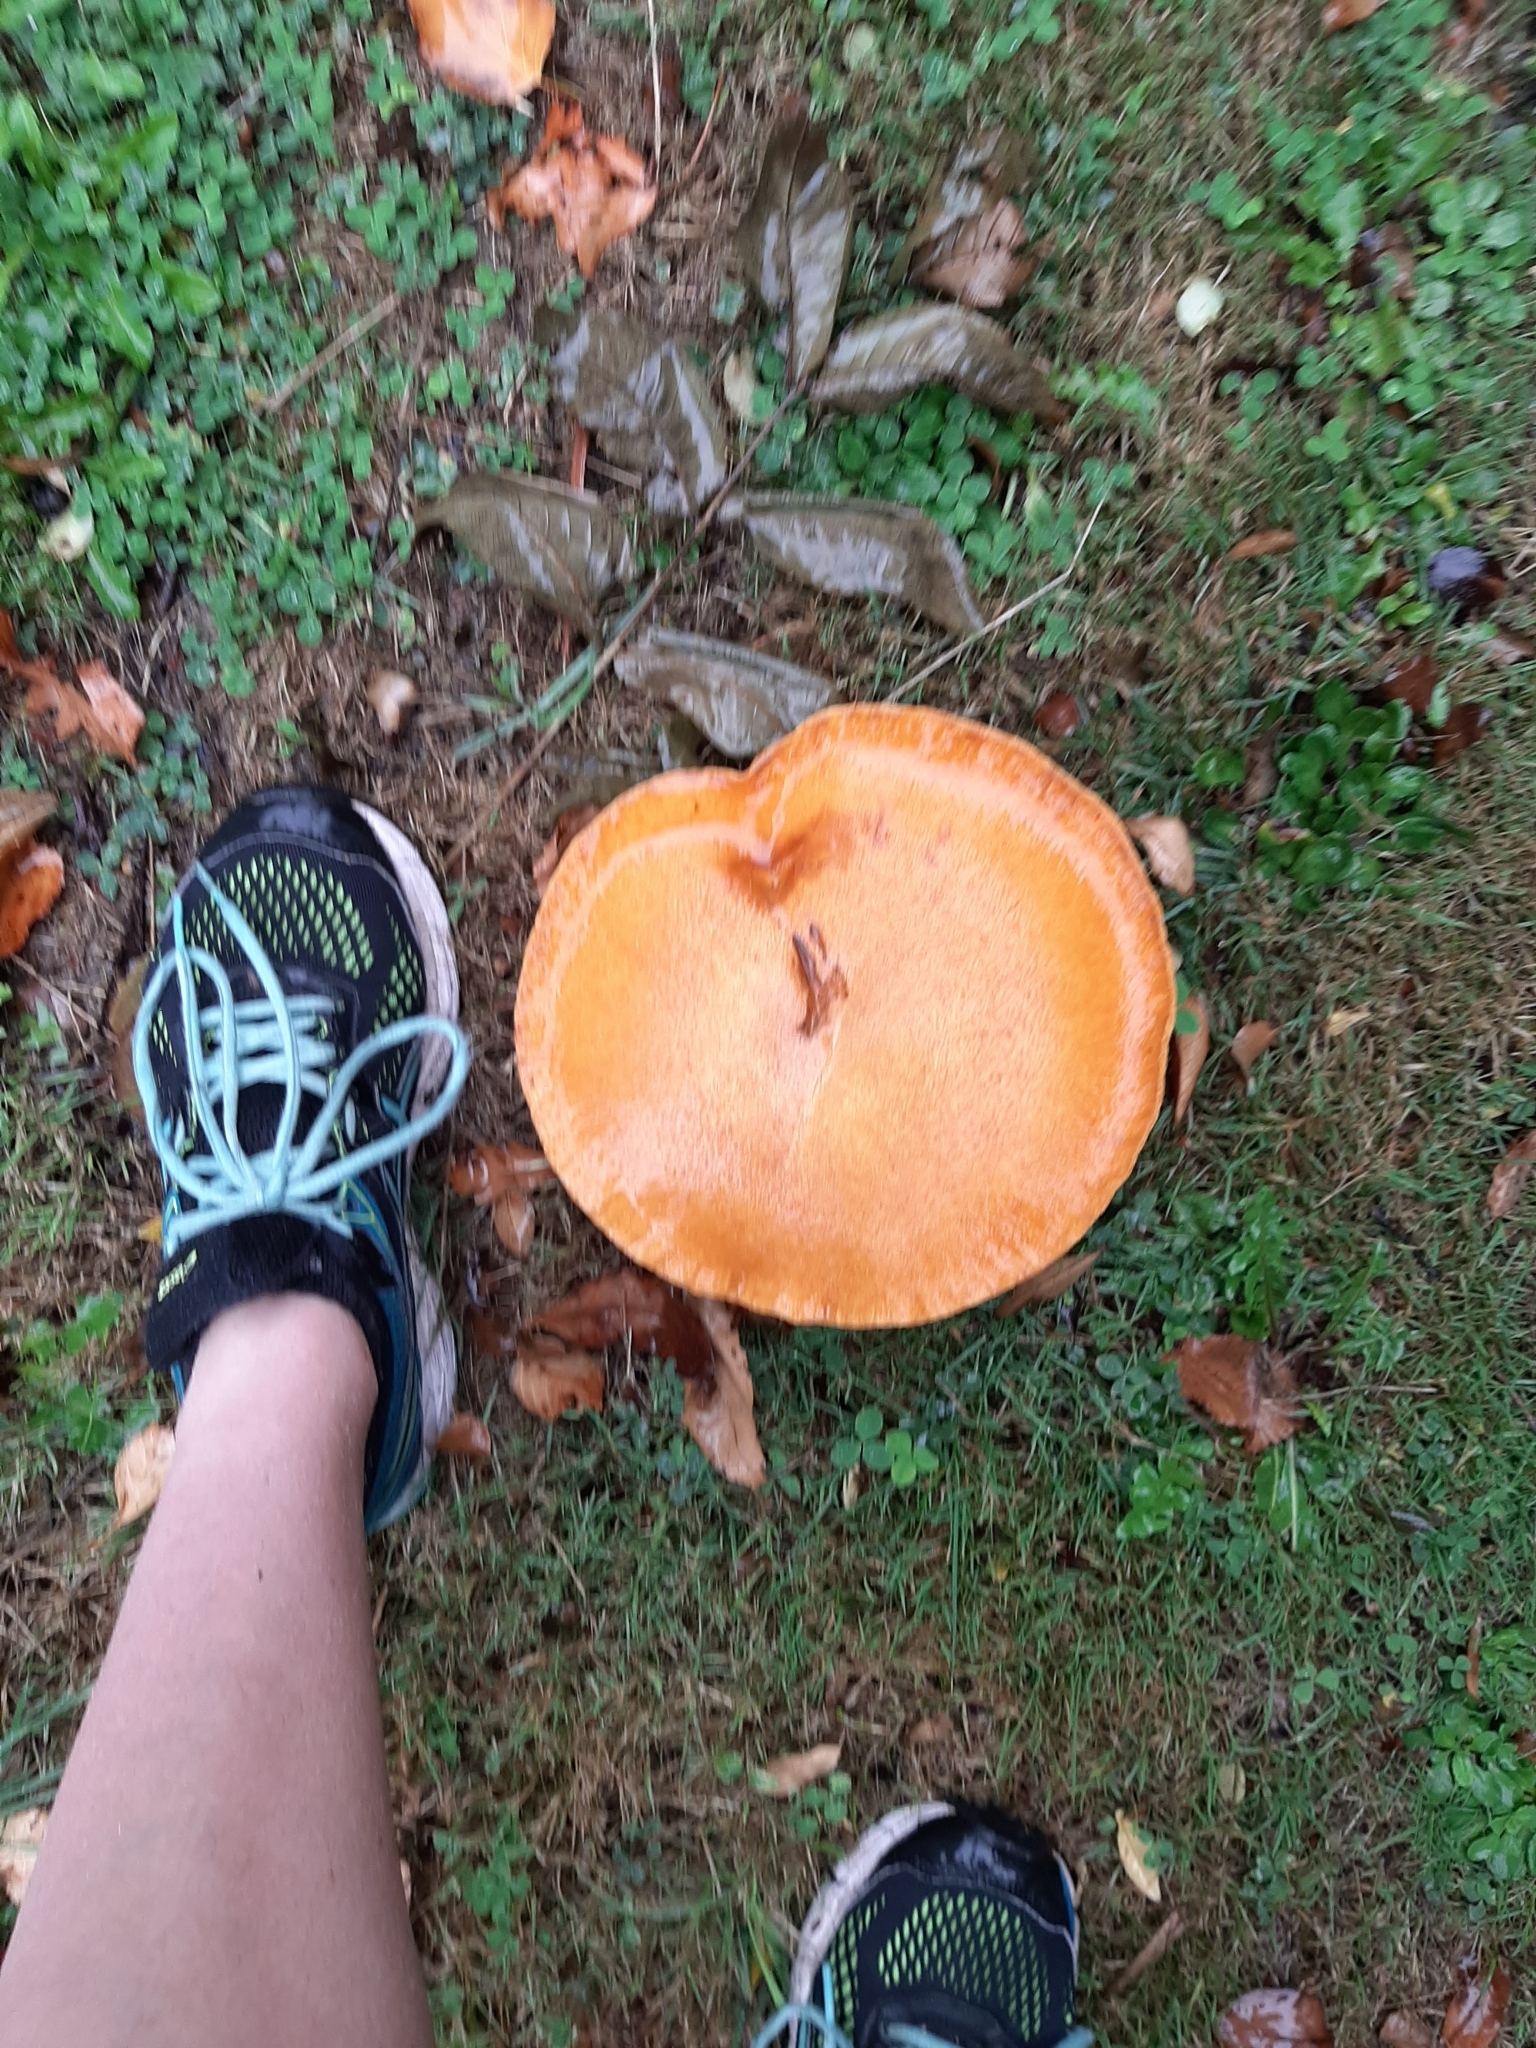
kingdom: Fungi
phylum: Basidiomycota
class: Agaricomycetes
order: Agaricales
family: Hymenogastraceae
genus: Gymnopilus
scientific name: Gymnopilus junonius
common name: Spectacular rustgill
